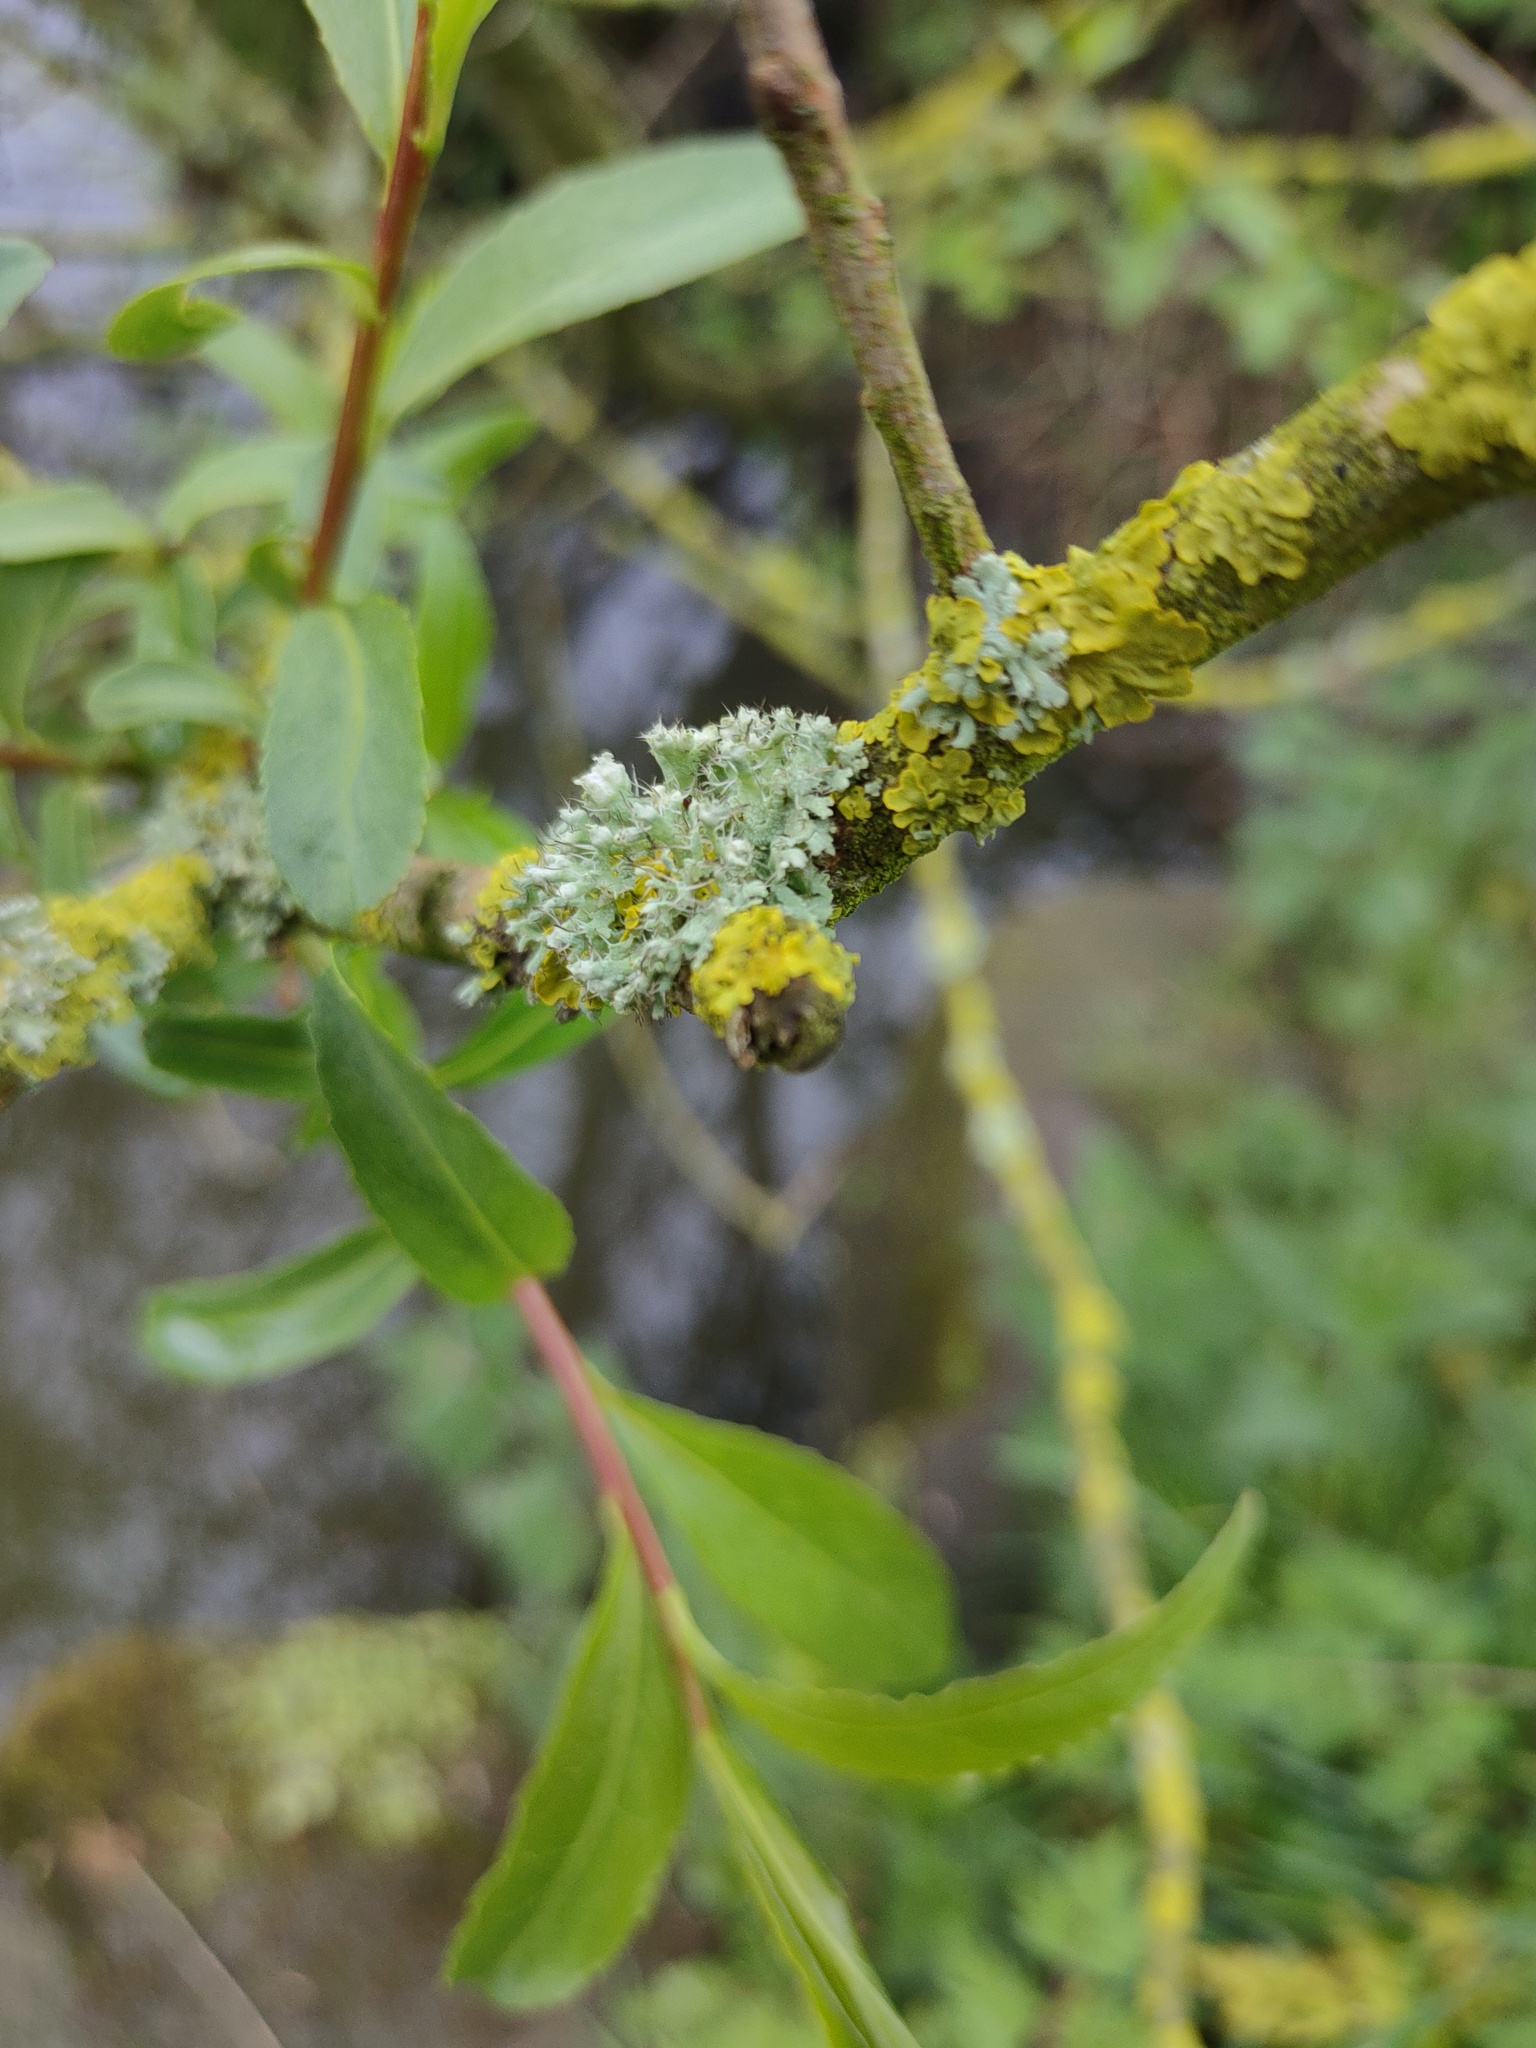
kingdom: Fungi
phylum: Ascomycota
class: Lecanoromycetes
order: Caliciales
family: Physciaceae
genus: Physcia
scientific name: Physcia adscendens
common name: Hooded rosette lichen
